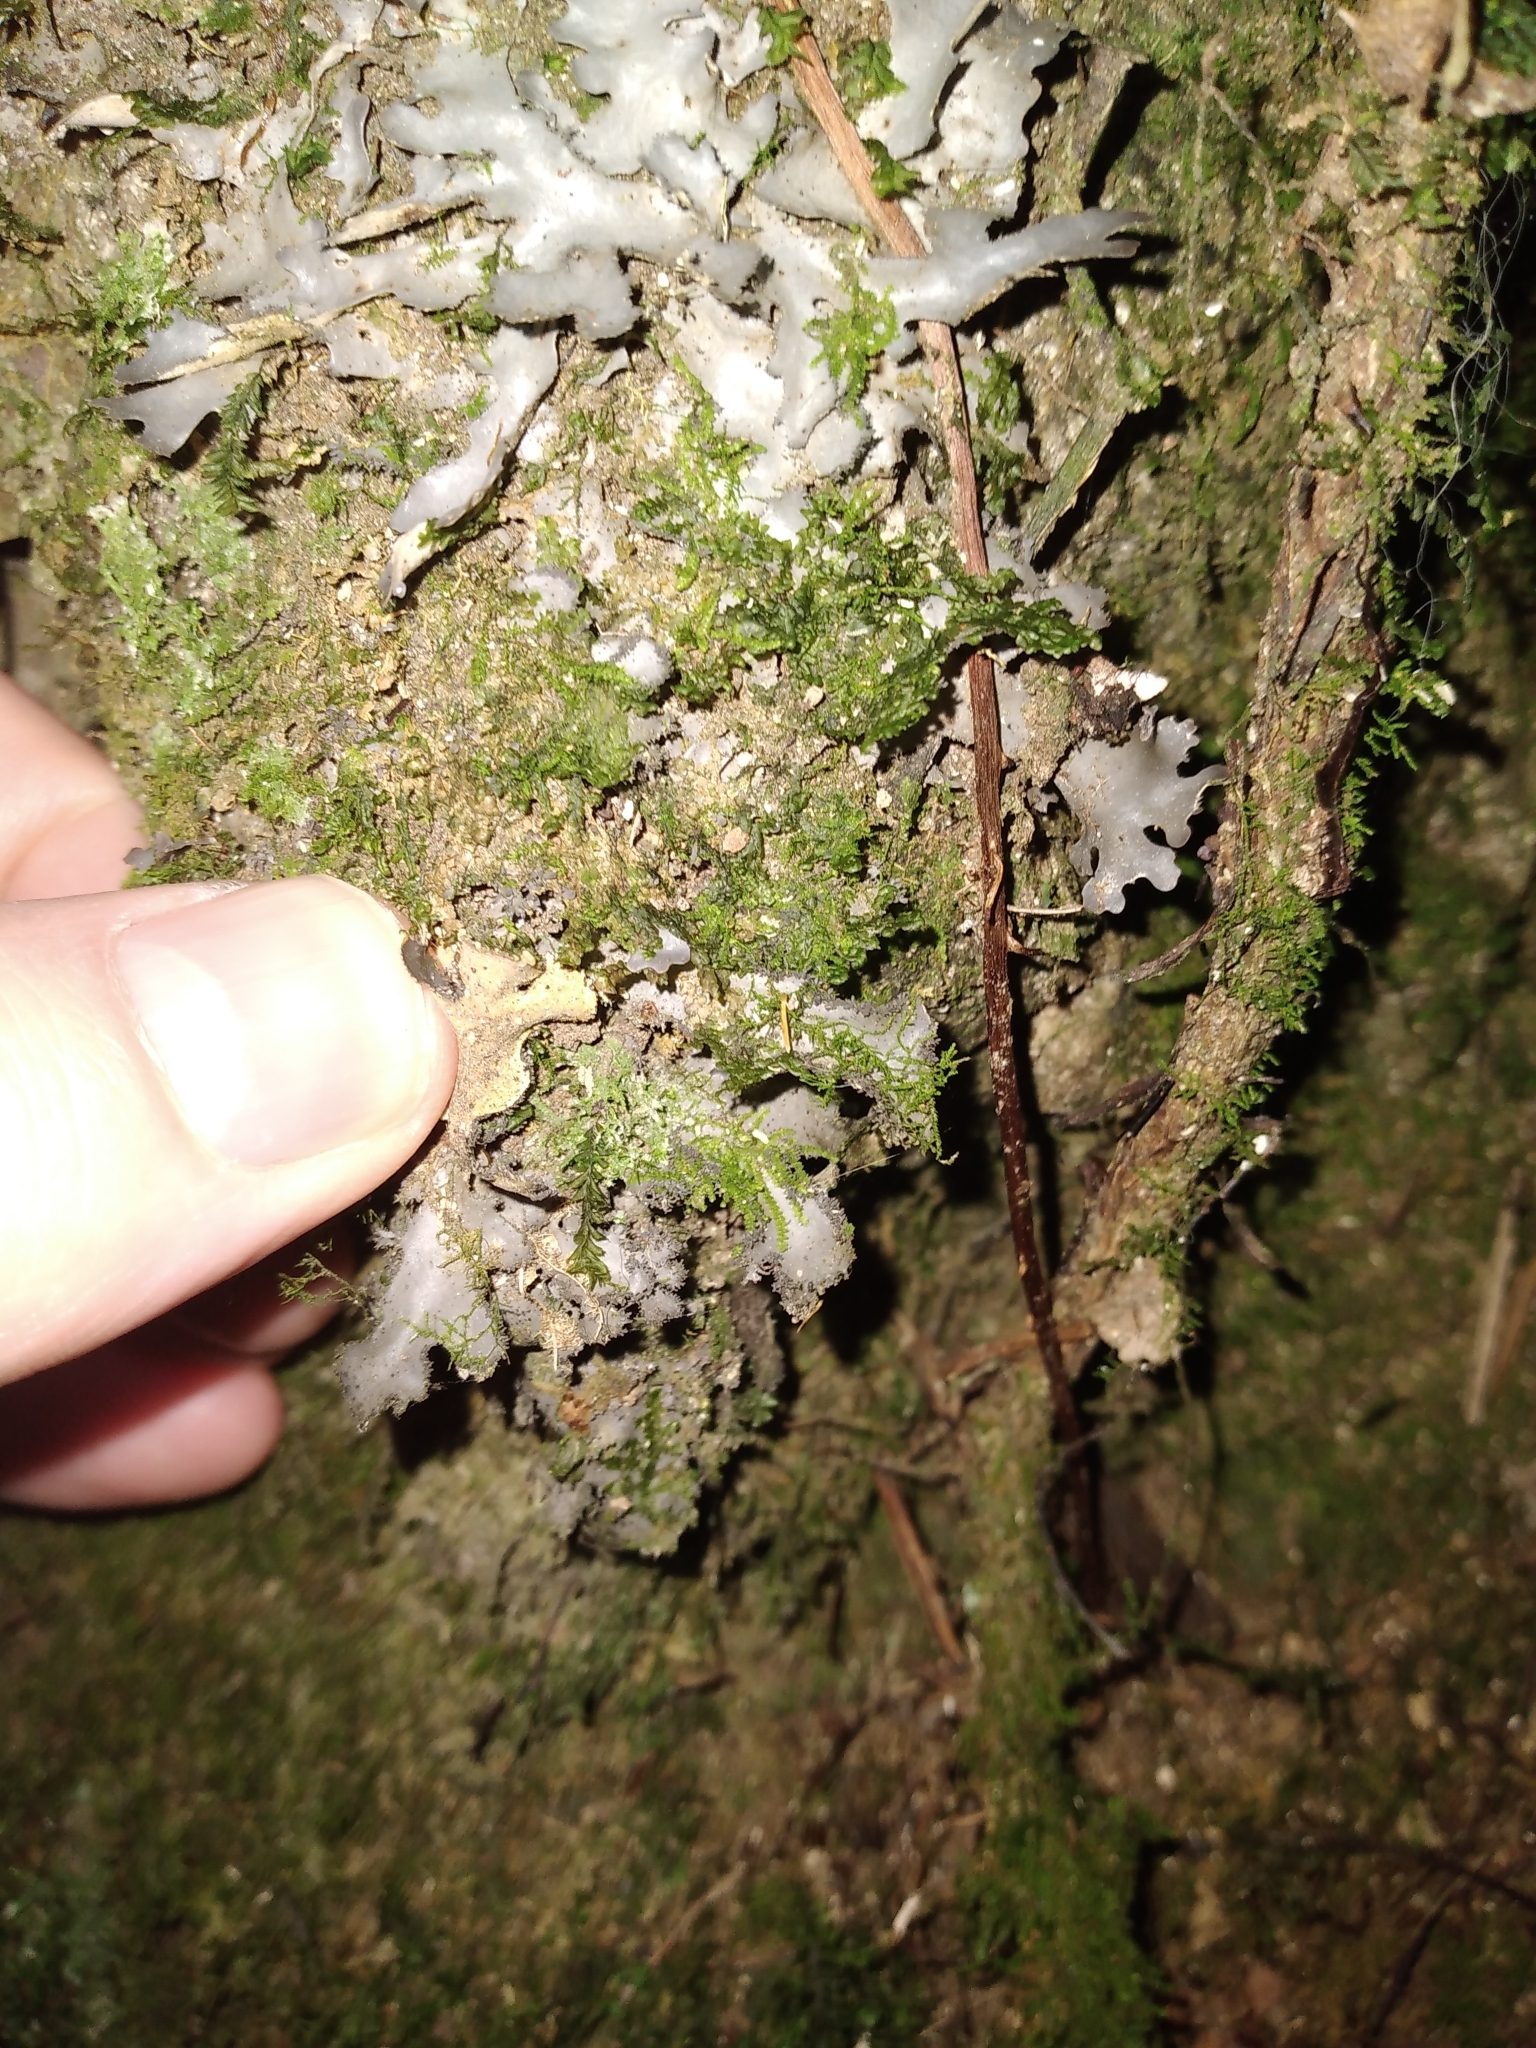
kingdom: Fungi
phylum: Ascomycota
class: Lecanoromycetes
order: Peltigerales
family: Lobariaceae
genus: Pseudocyphellaria
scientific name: Pseudocyphellaria dissimilis
